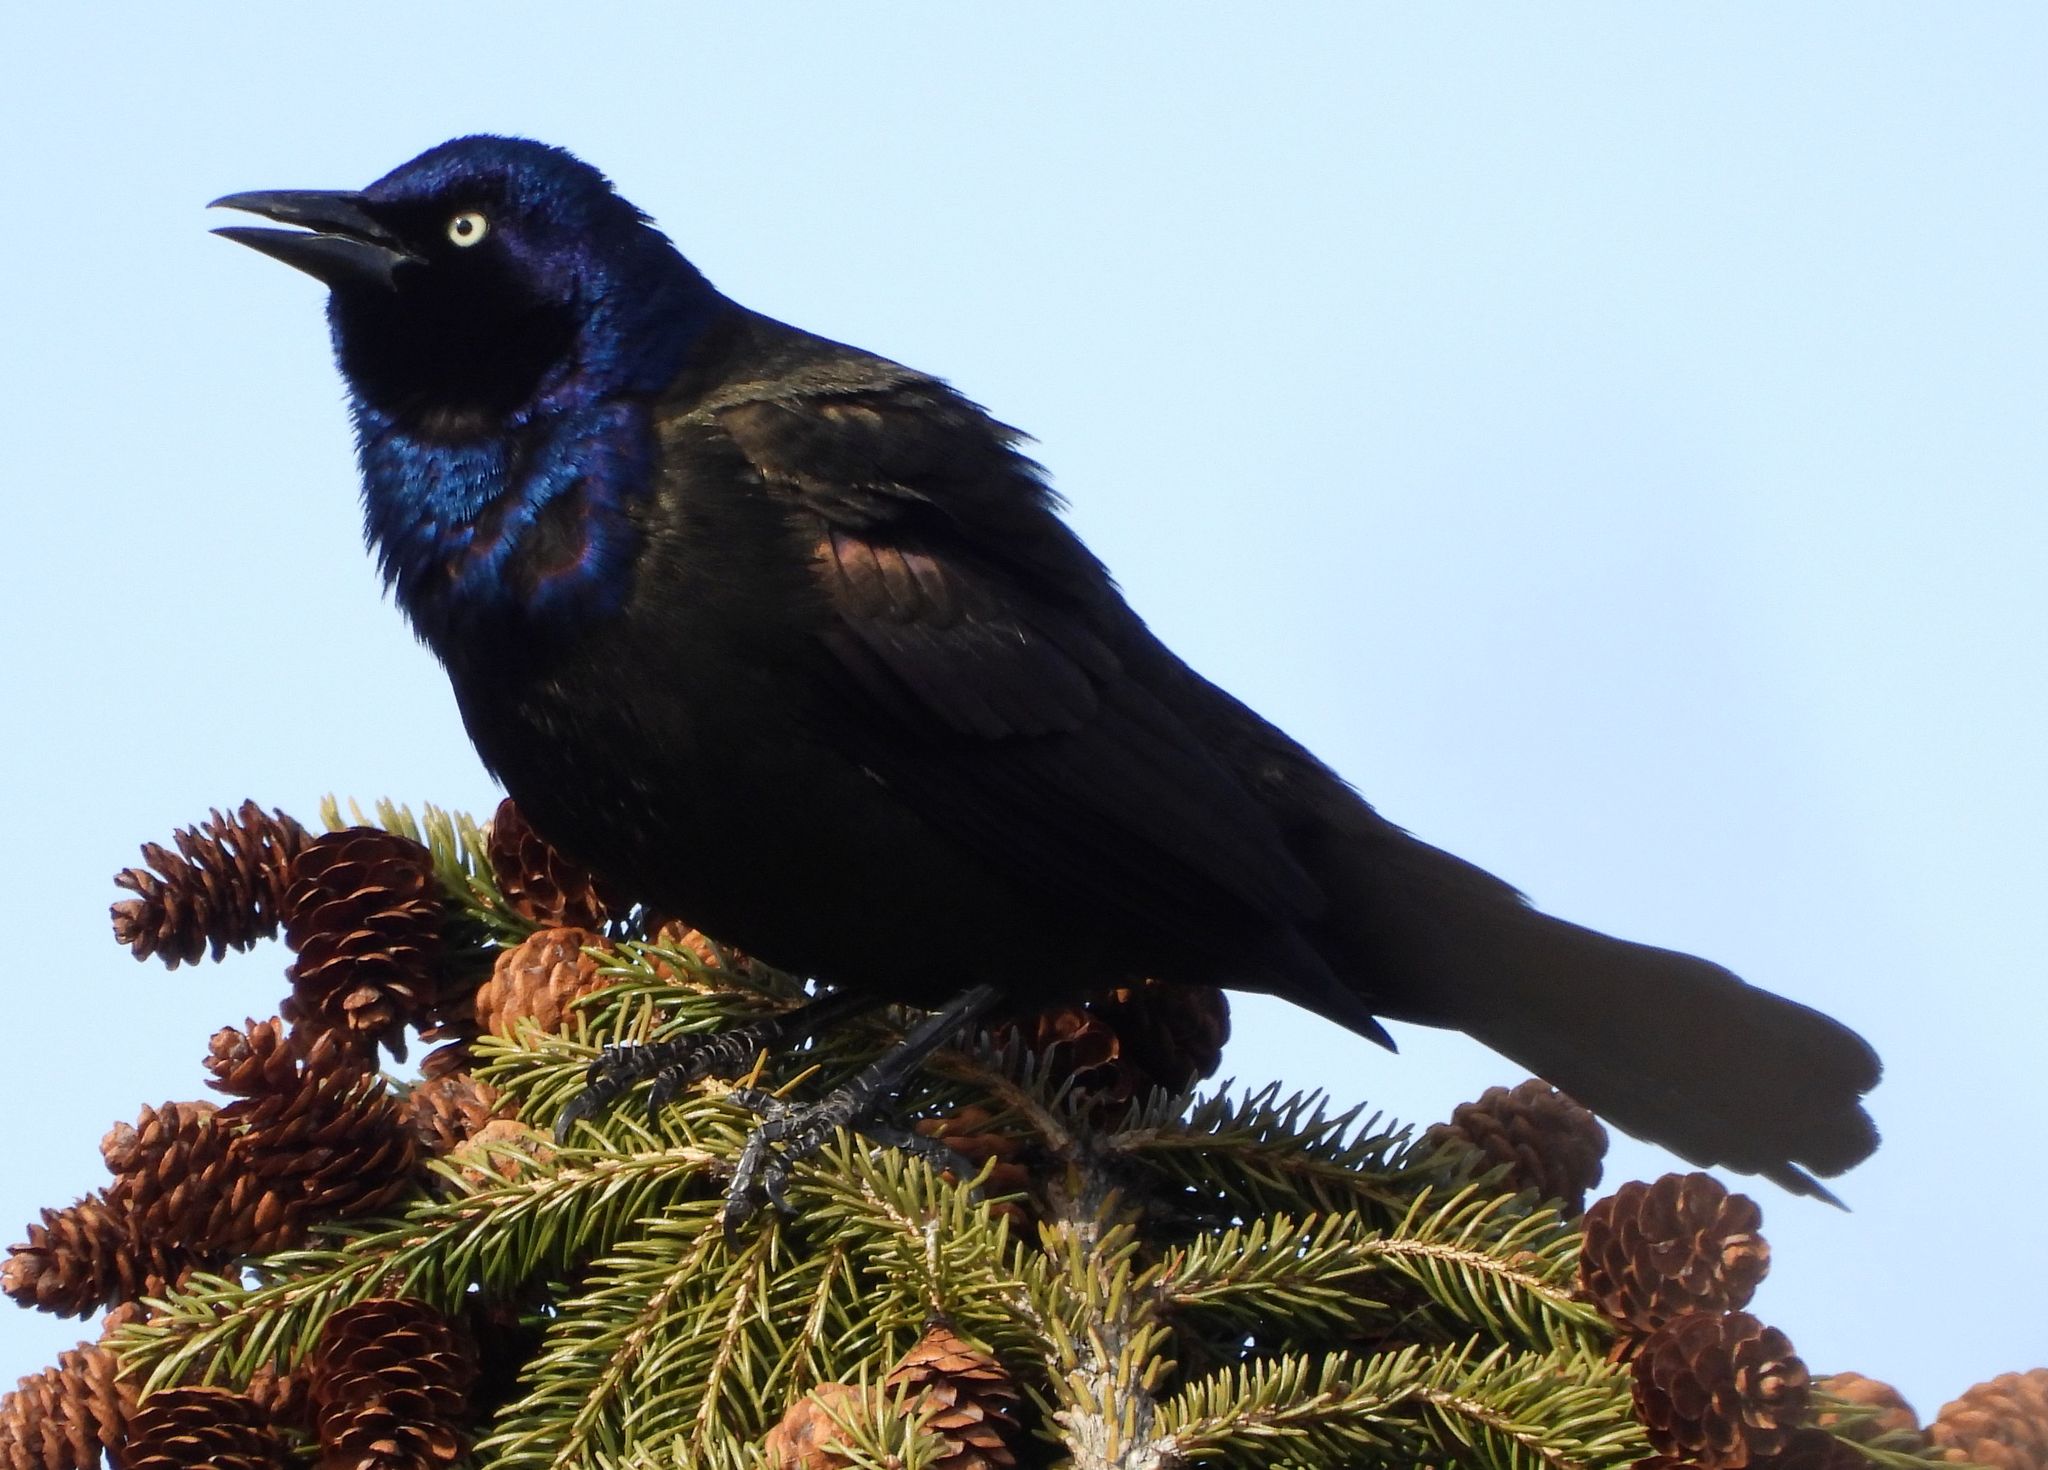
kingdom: Animalia
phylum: Chordata
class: Aves
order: Passeriformes
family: Icteridae
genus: Quiscalus
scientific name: Quiscalus quiscula
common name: Common grackle
